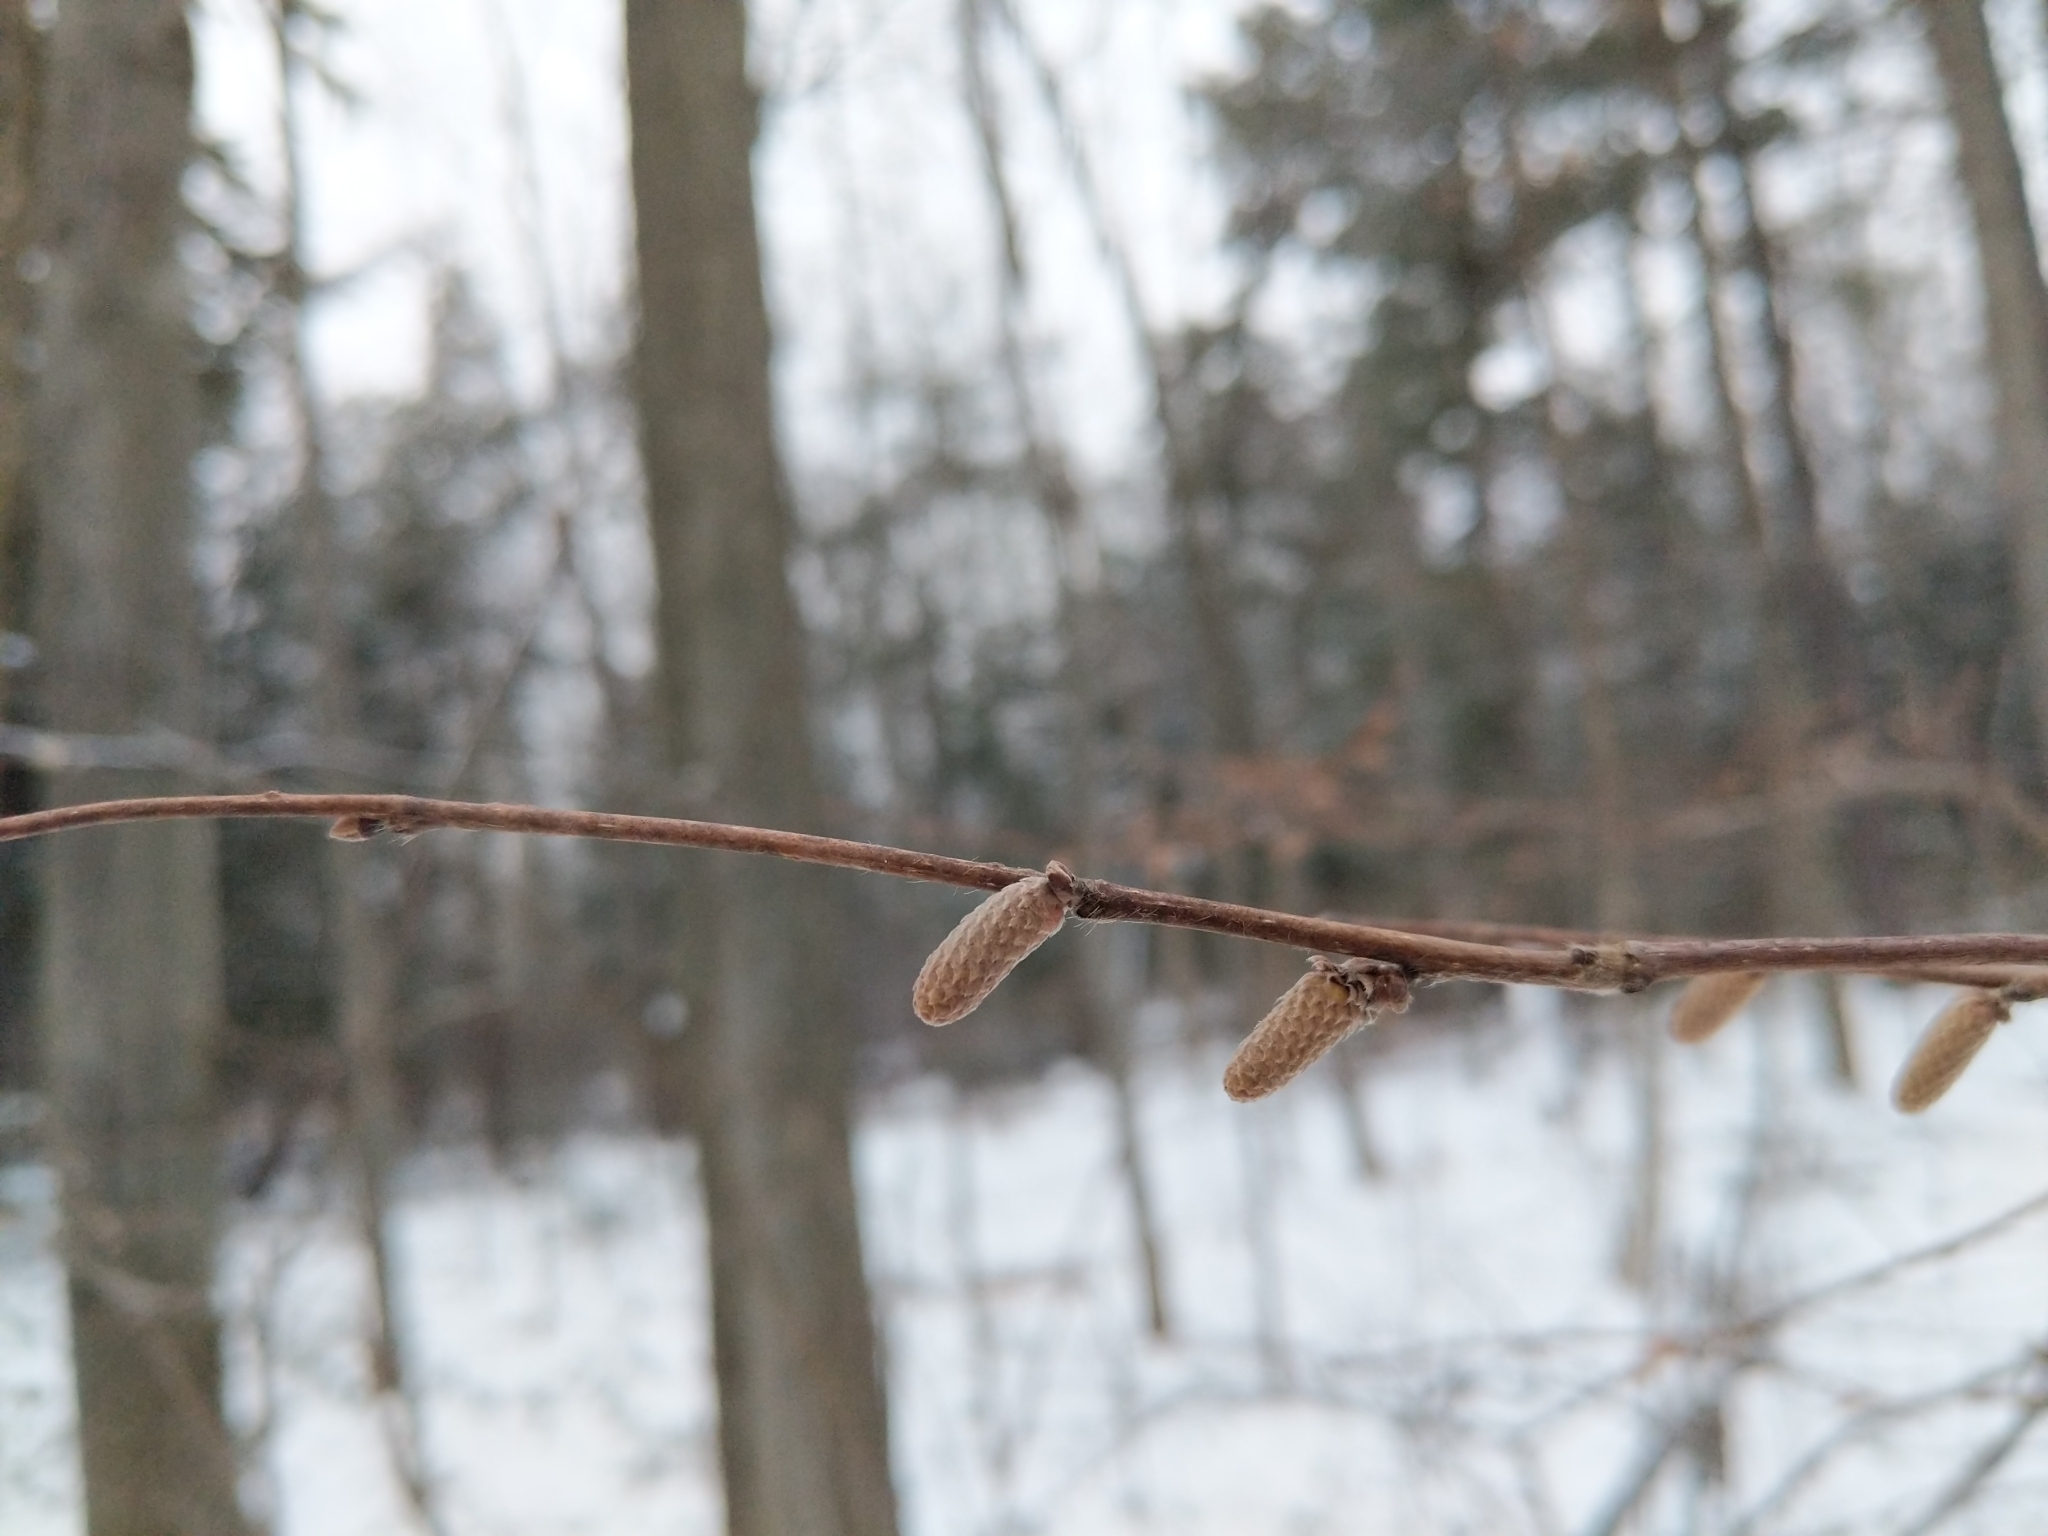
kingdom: Plantae
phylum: Tracheophyta
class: Magnoliopsida
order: Fagales
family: Betulaceae
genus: Corylus
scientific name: Corylus cornuta
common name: Beaked hazel
